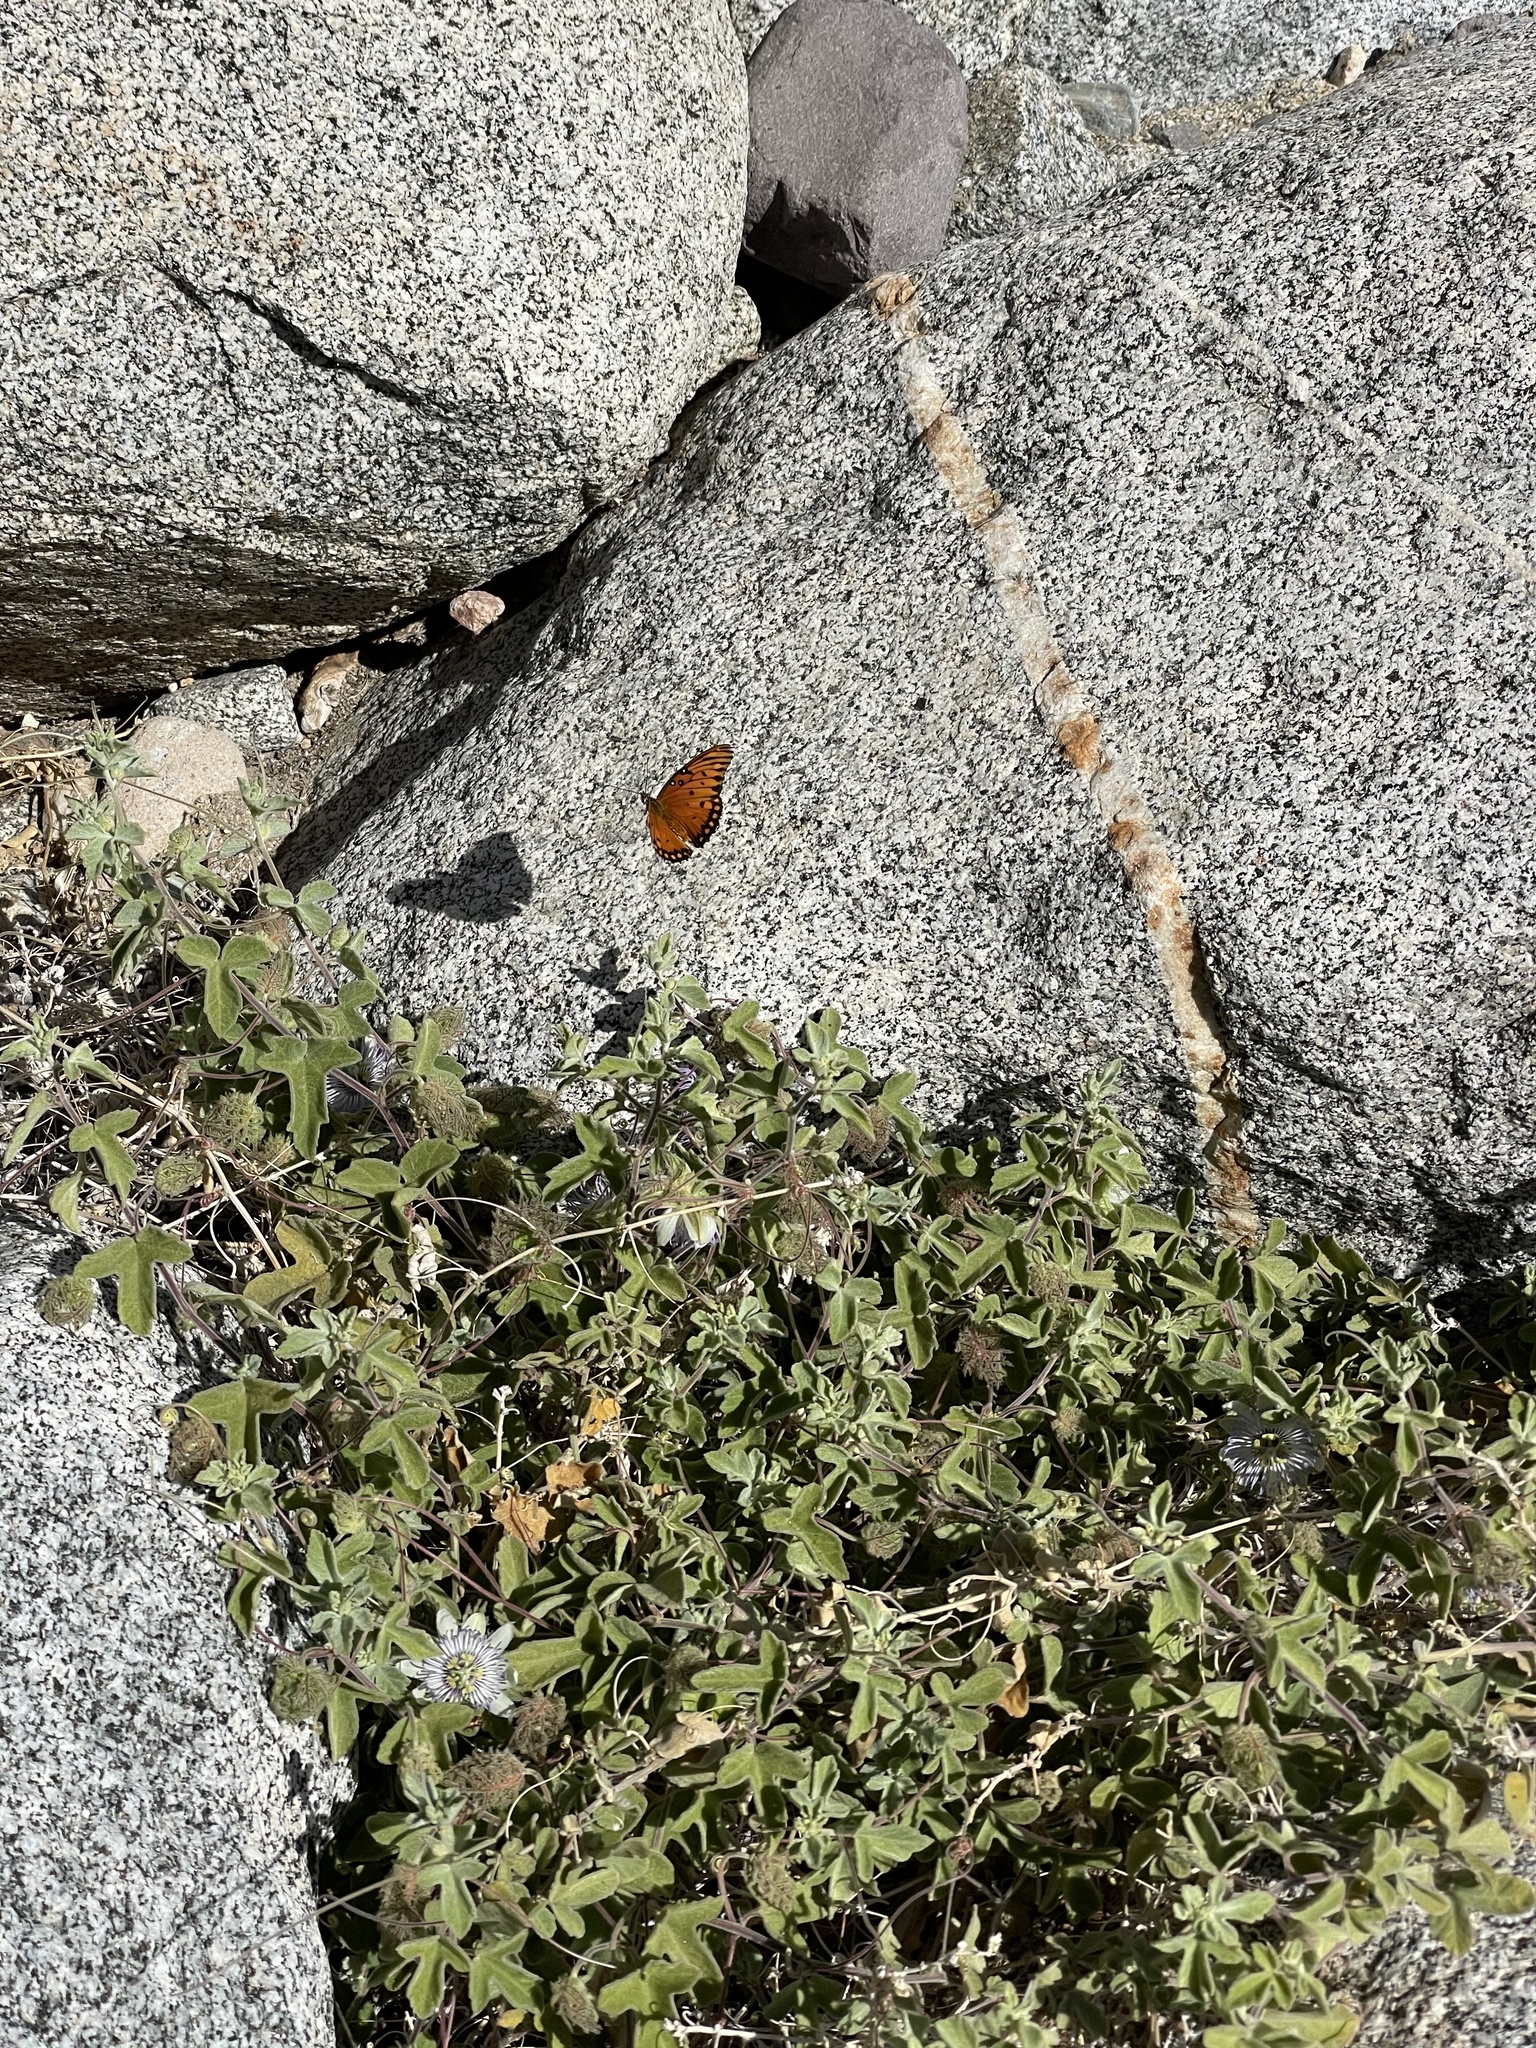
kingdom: Animalia
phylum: Arthropoda
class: Insecta
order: Lepidoptera
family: Nymphalidae
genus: Dione
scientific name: Dione vanillae
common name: Gulf fritillary
